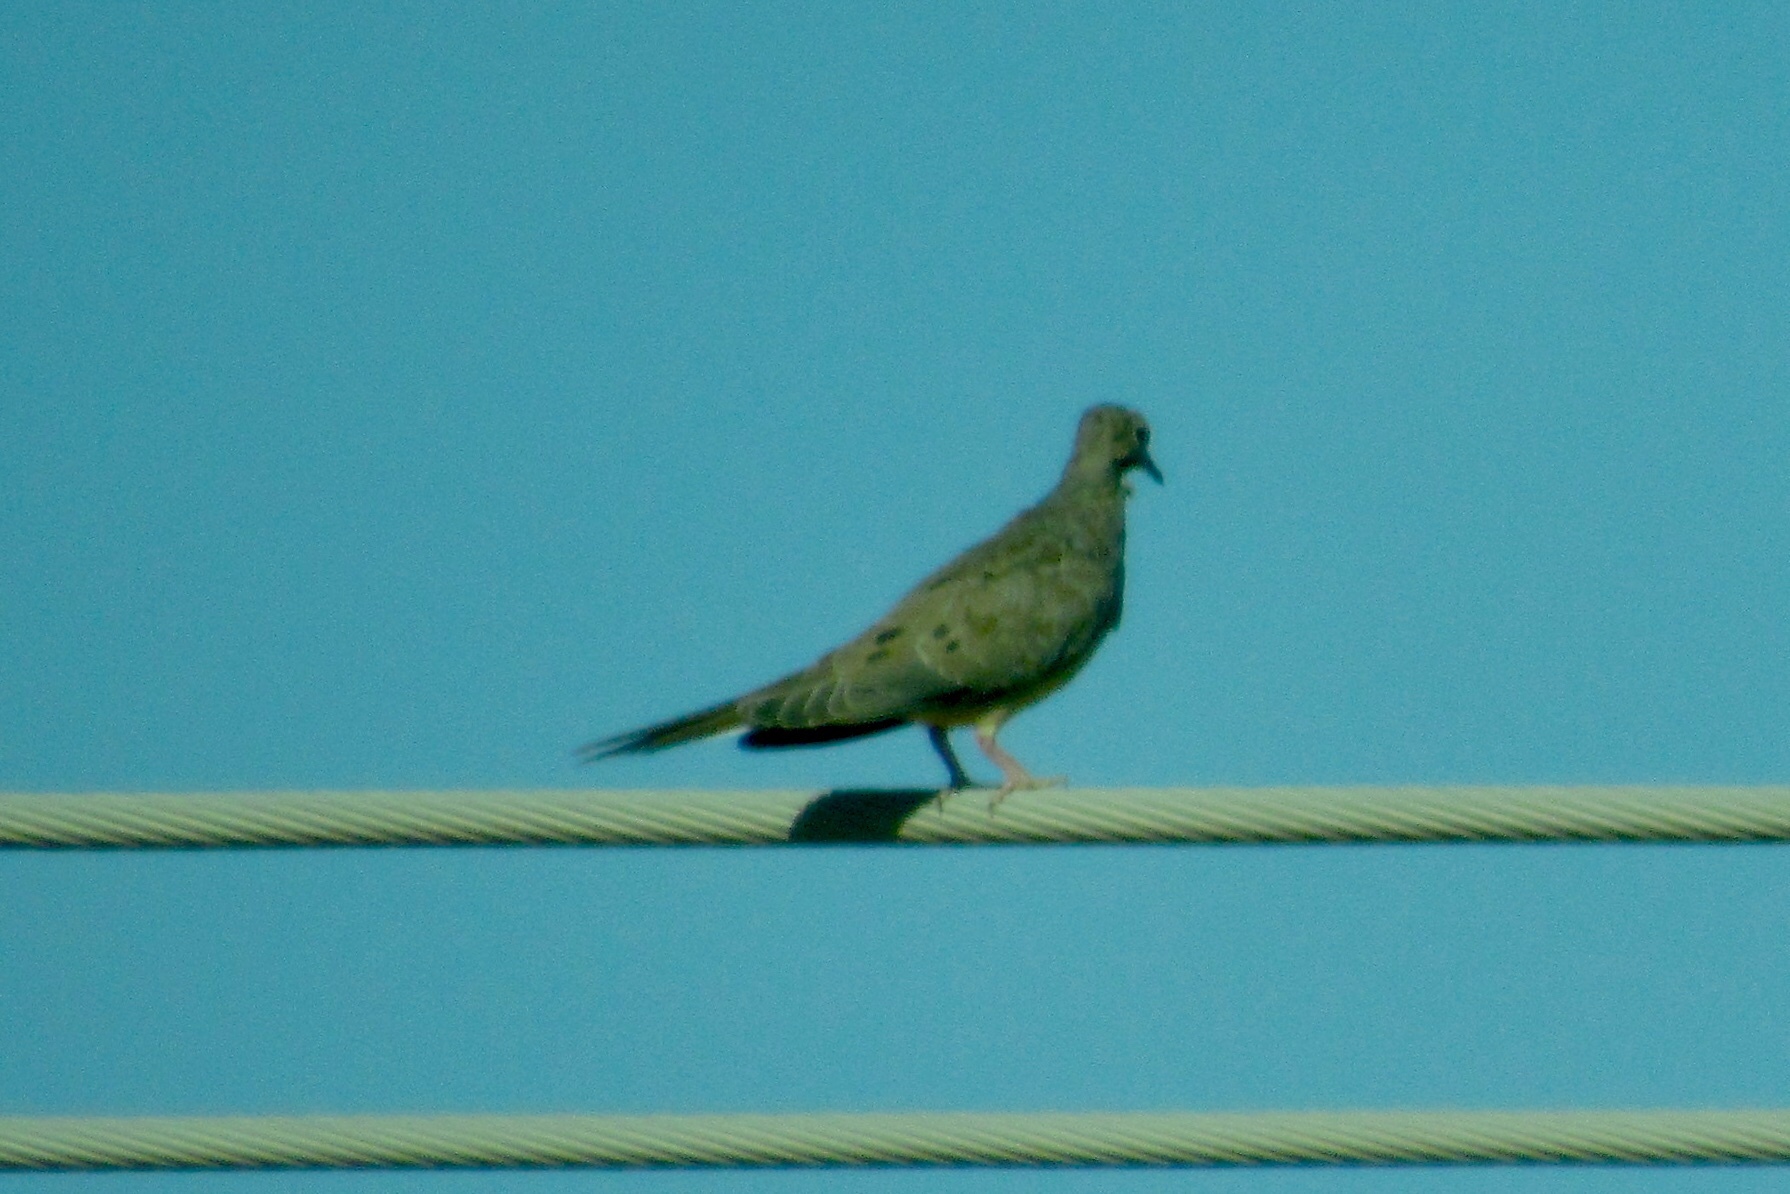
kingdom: Animalia
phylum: Chordata
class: Aves
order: Columbiformes
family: Columbidae
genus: Zenaida
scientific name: Zenaida macroura
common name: Mourning dove
